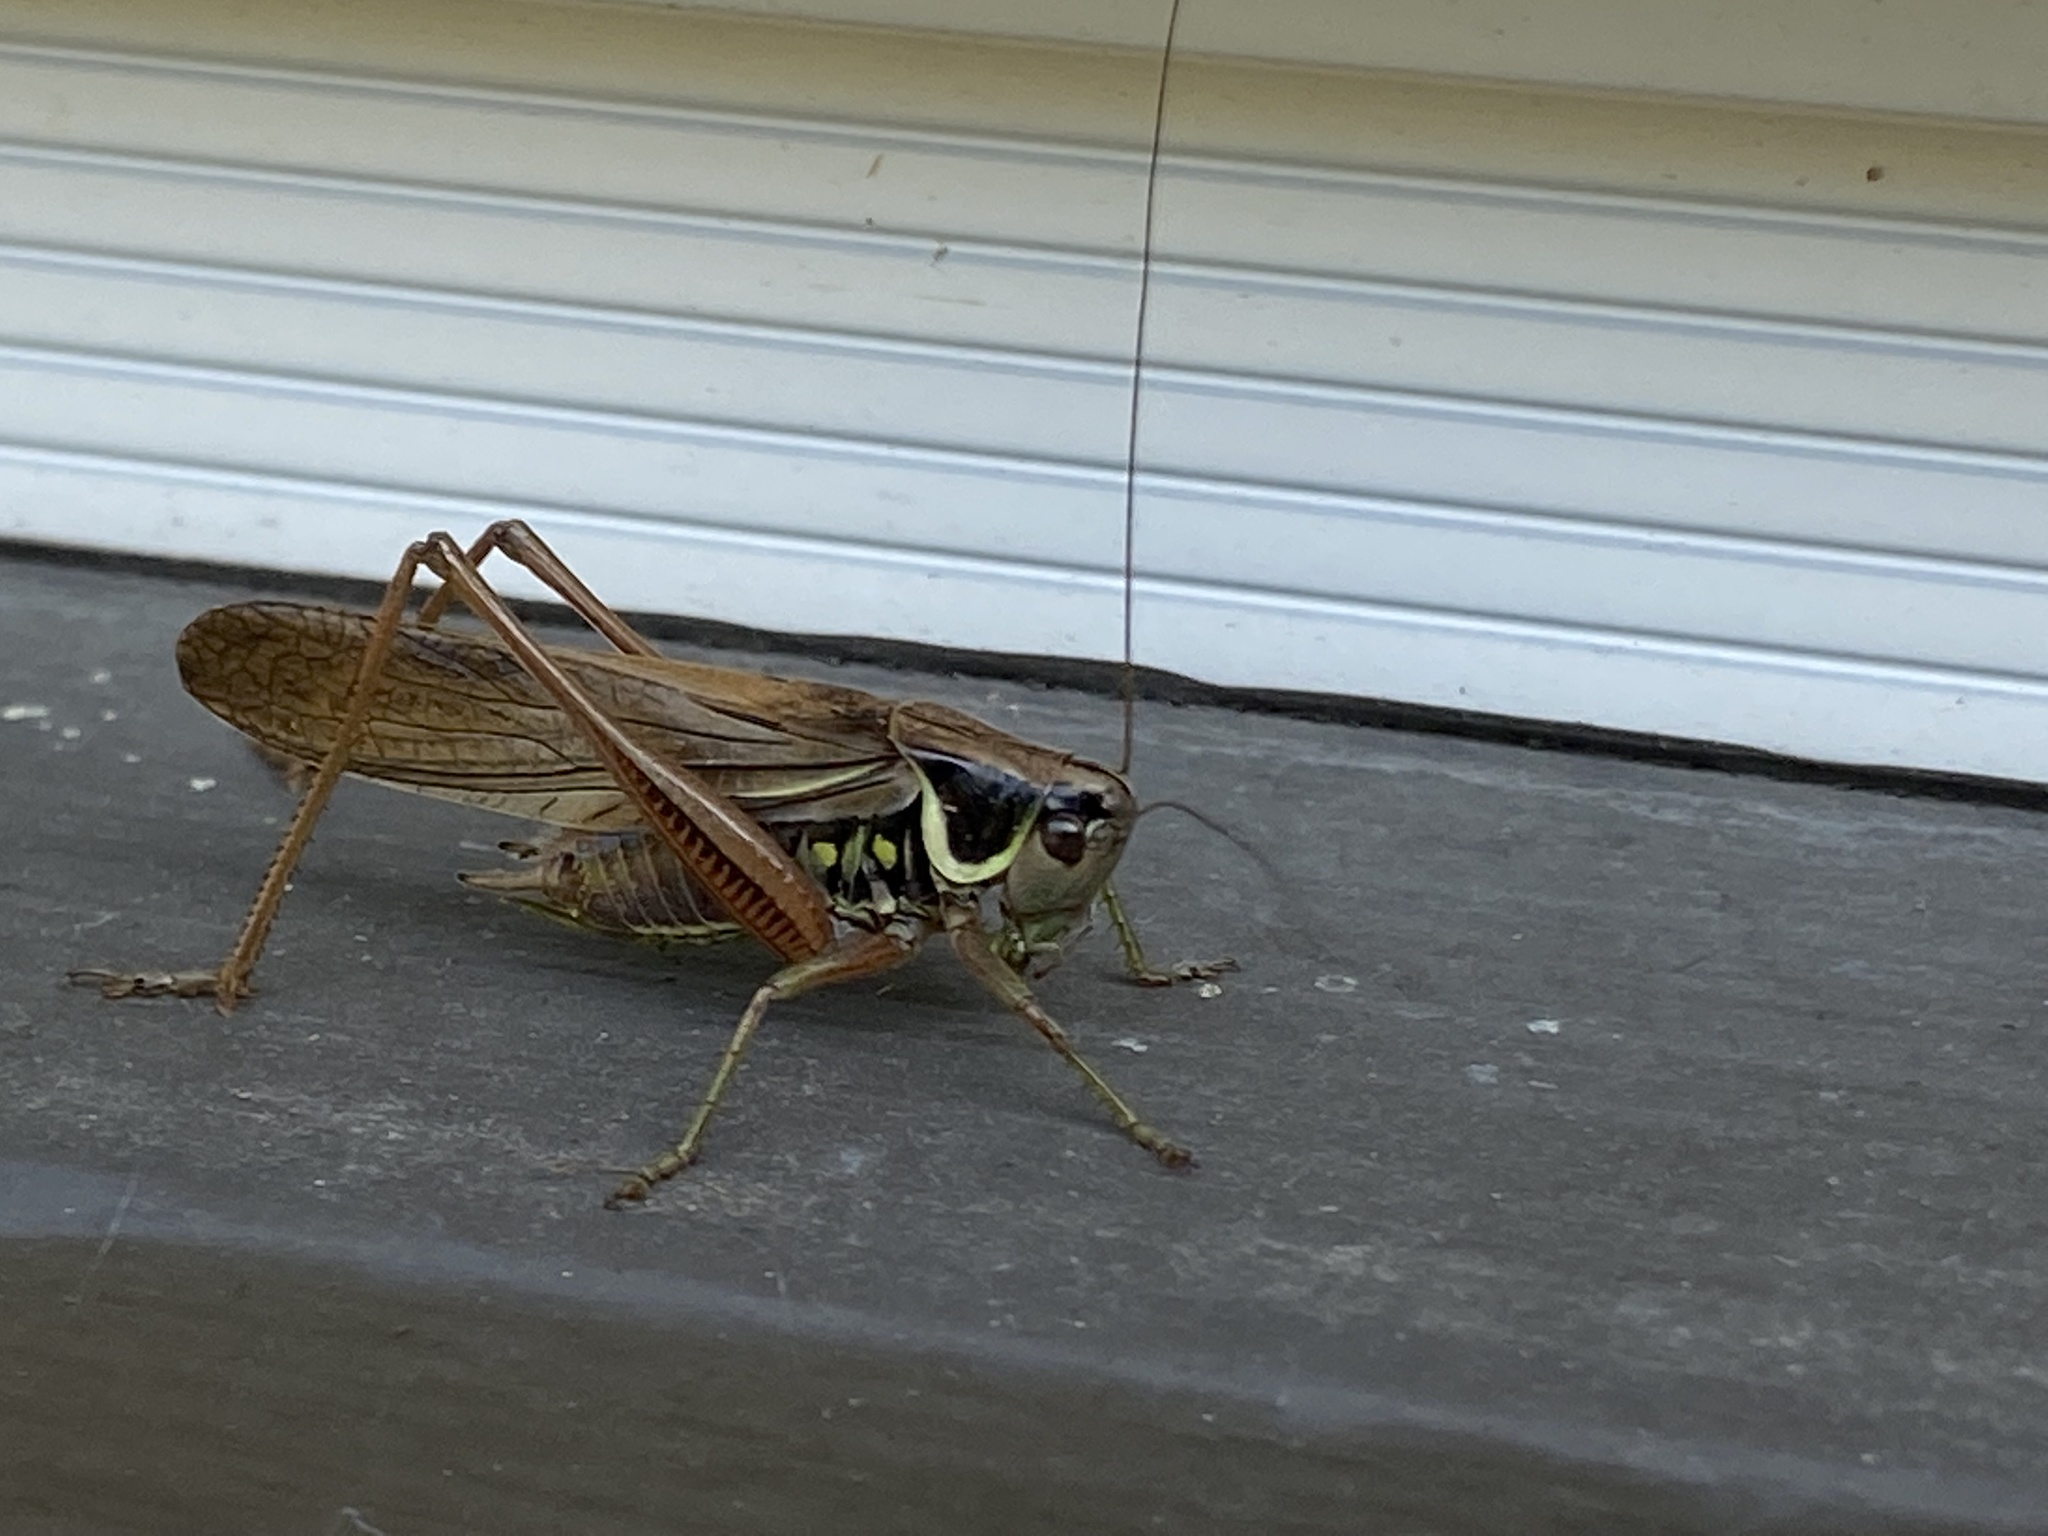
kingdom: Animalia
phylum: Arthropoda
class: Insecta
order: Orthoptera
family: Tettigoniidae
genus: Roeseliana
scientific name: Roeseliana roeselii
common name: Roesel's bush cricket
